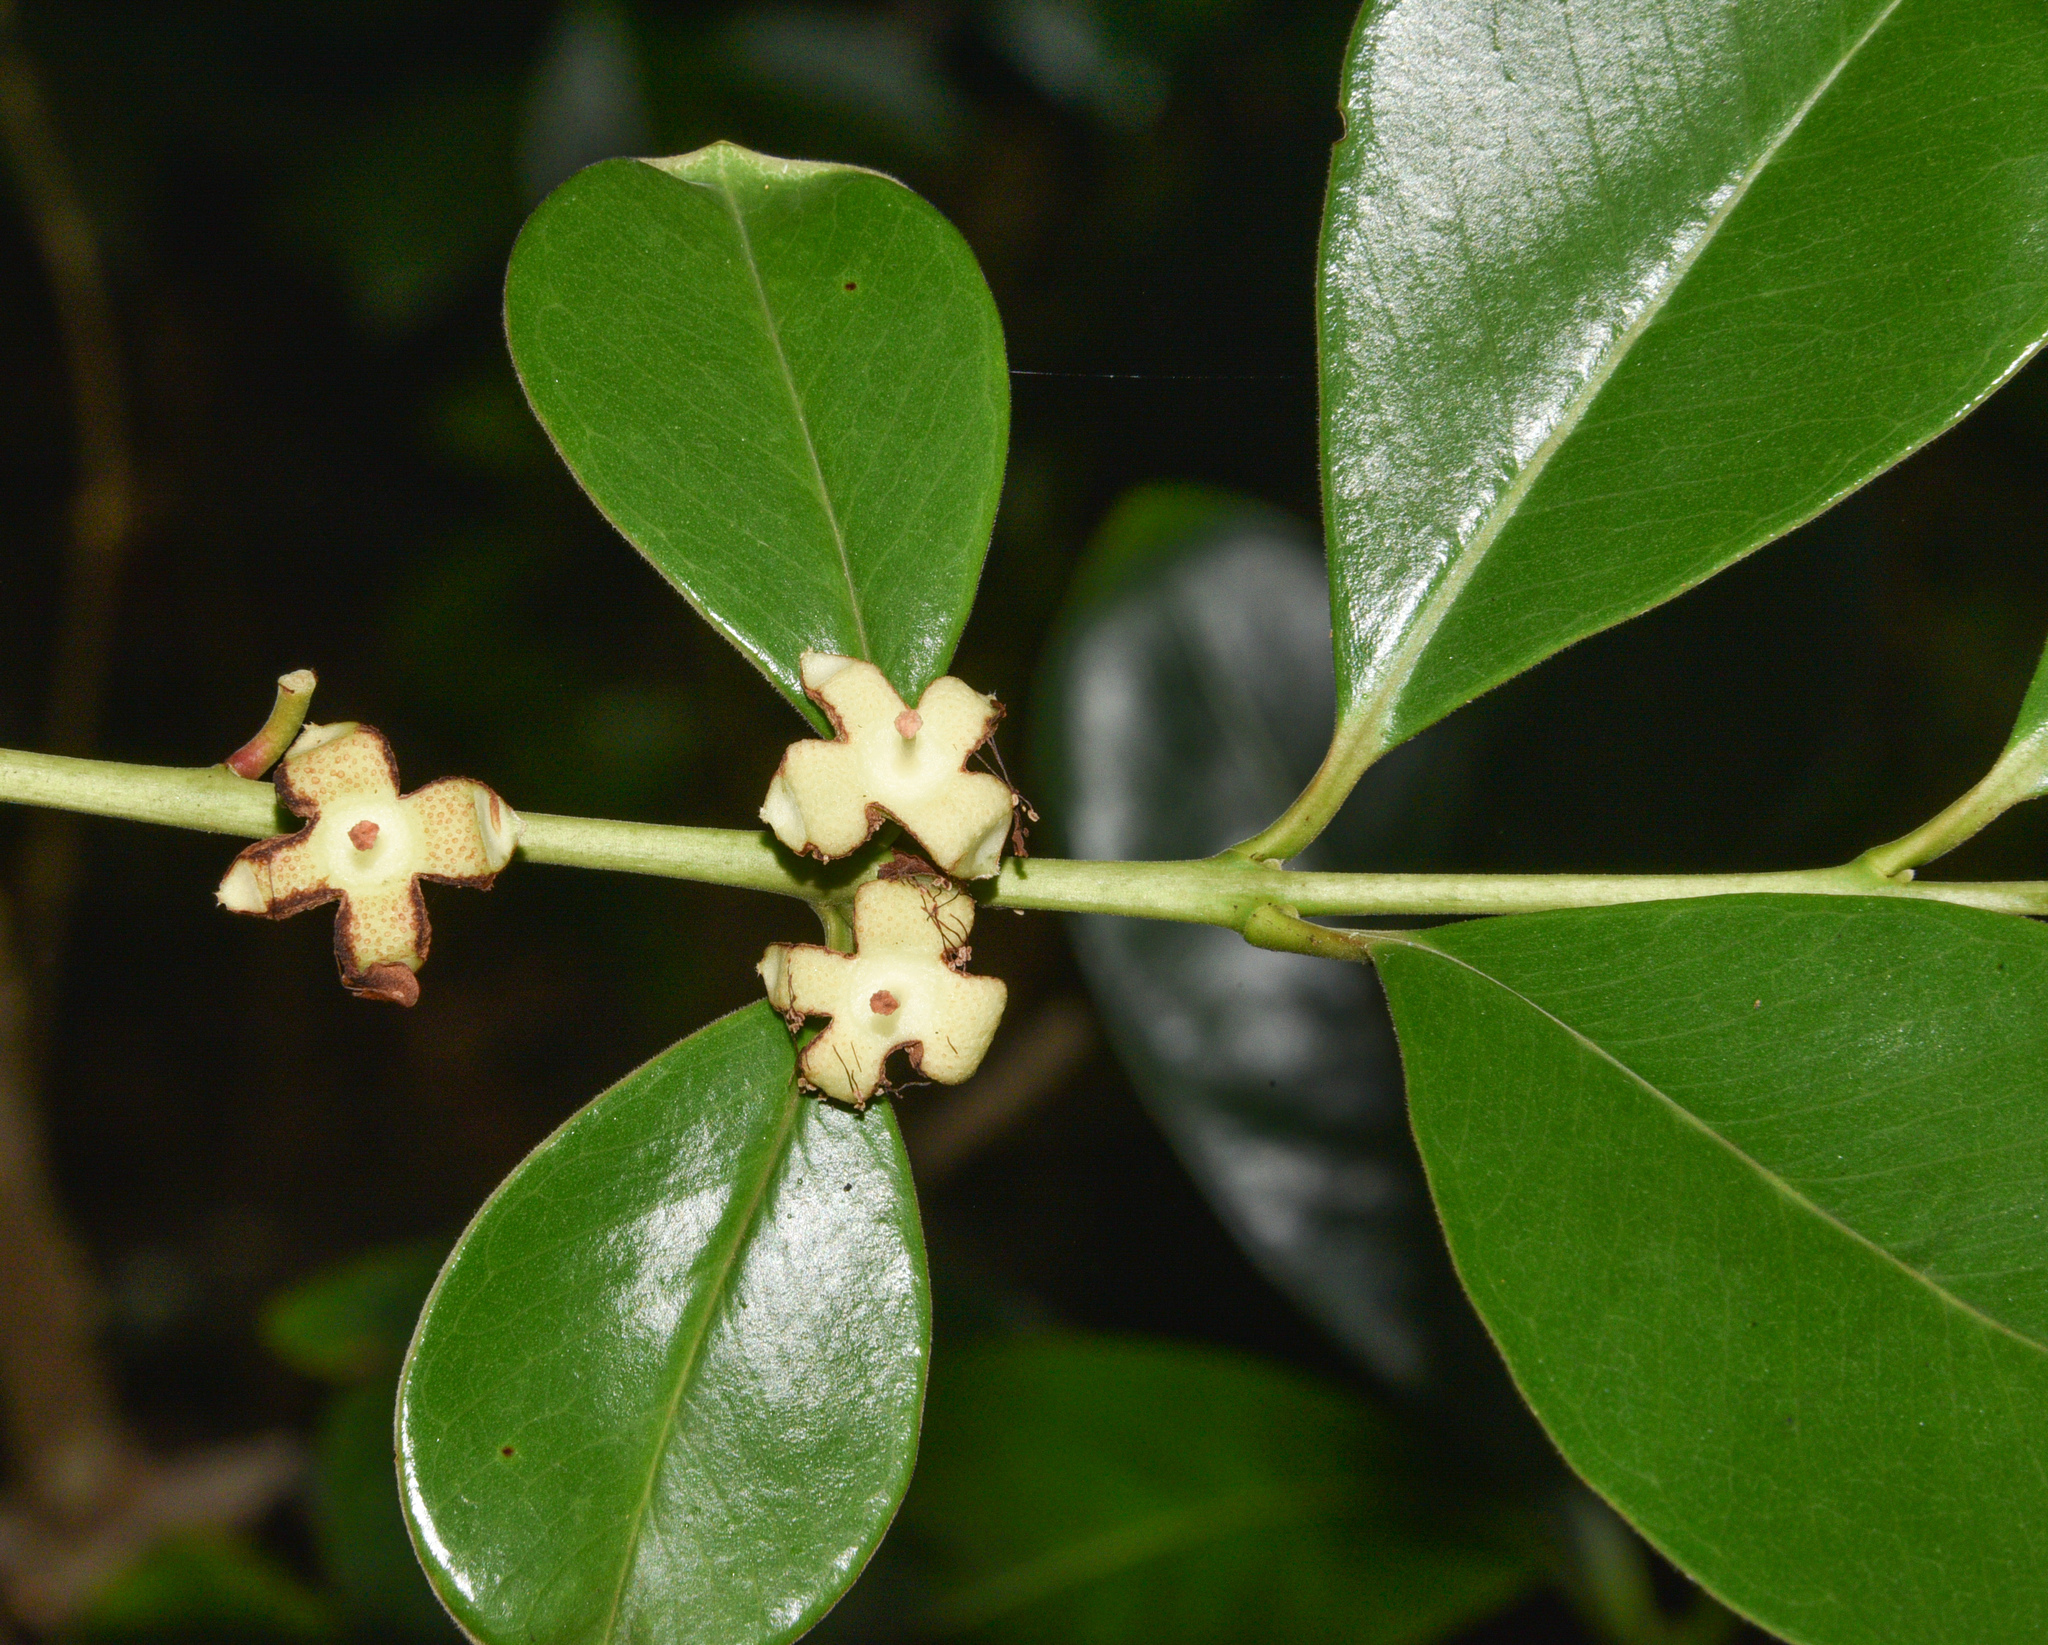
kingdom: Plantae
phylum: Tracheophyta
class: Magnoliopsida
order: Myrtales
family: Myrtaceae
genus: Psidium
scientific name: Psidium cattleianum
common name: Strawberry guava
